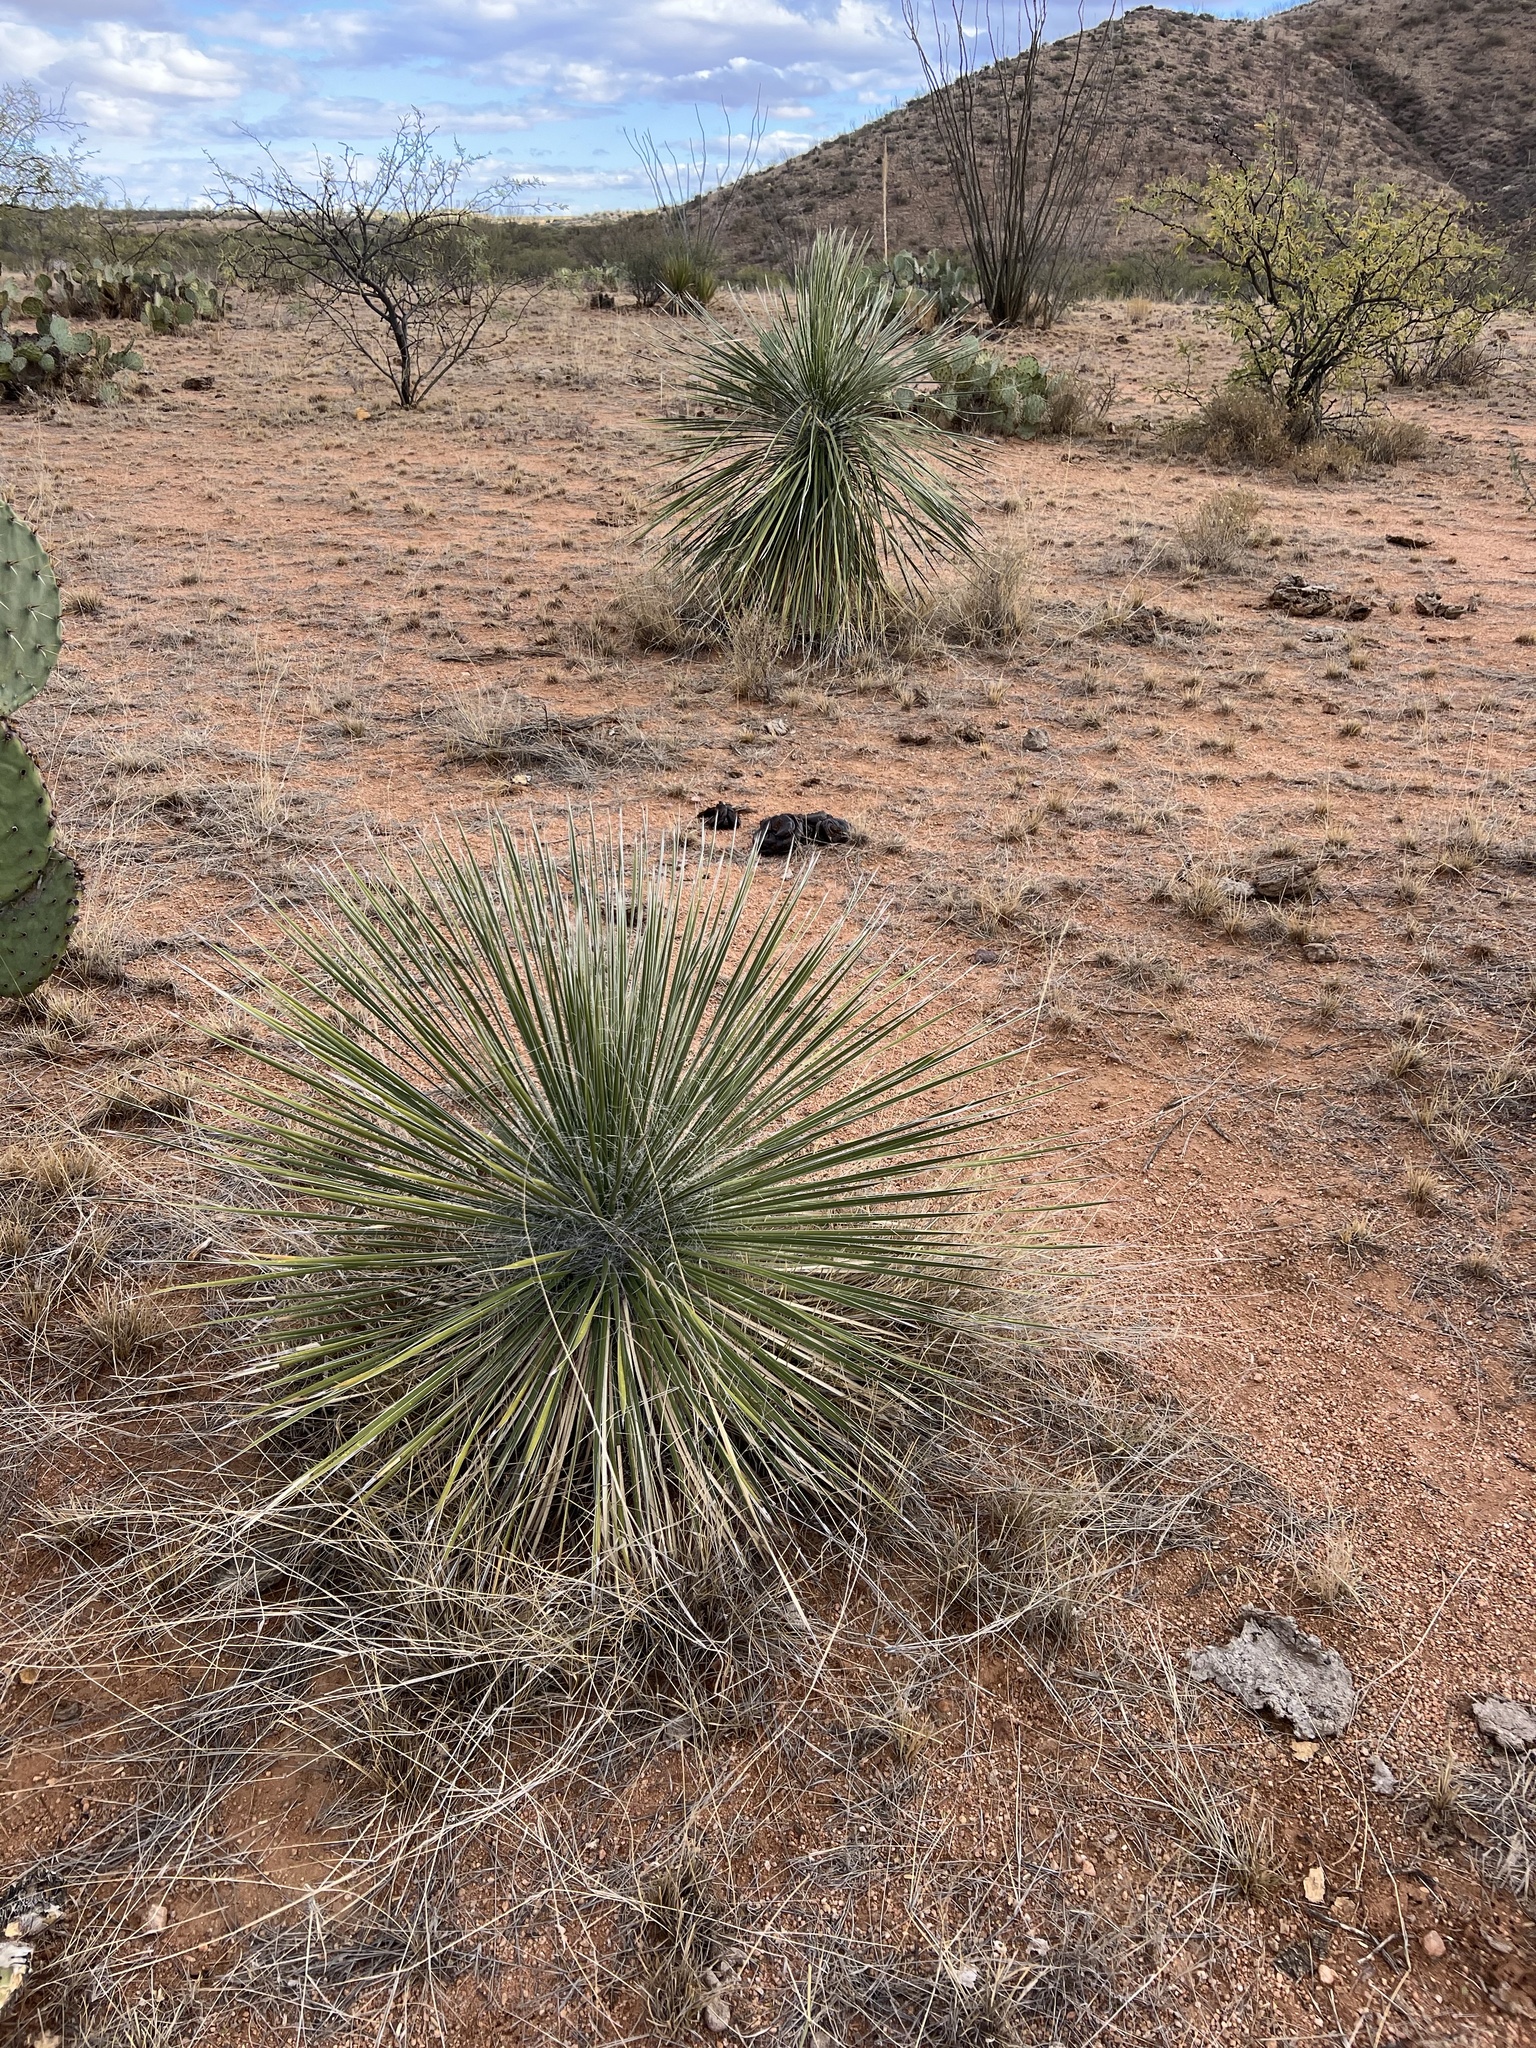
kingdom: Plantae
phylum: Tracheophyta
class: Liliopsida
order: Asparagales
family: Asparagaceae
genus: Yucca
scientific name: Yucca elata
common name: Palmella
